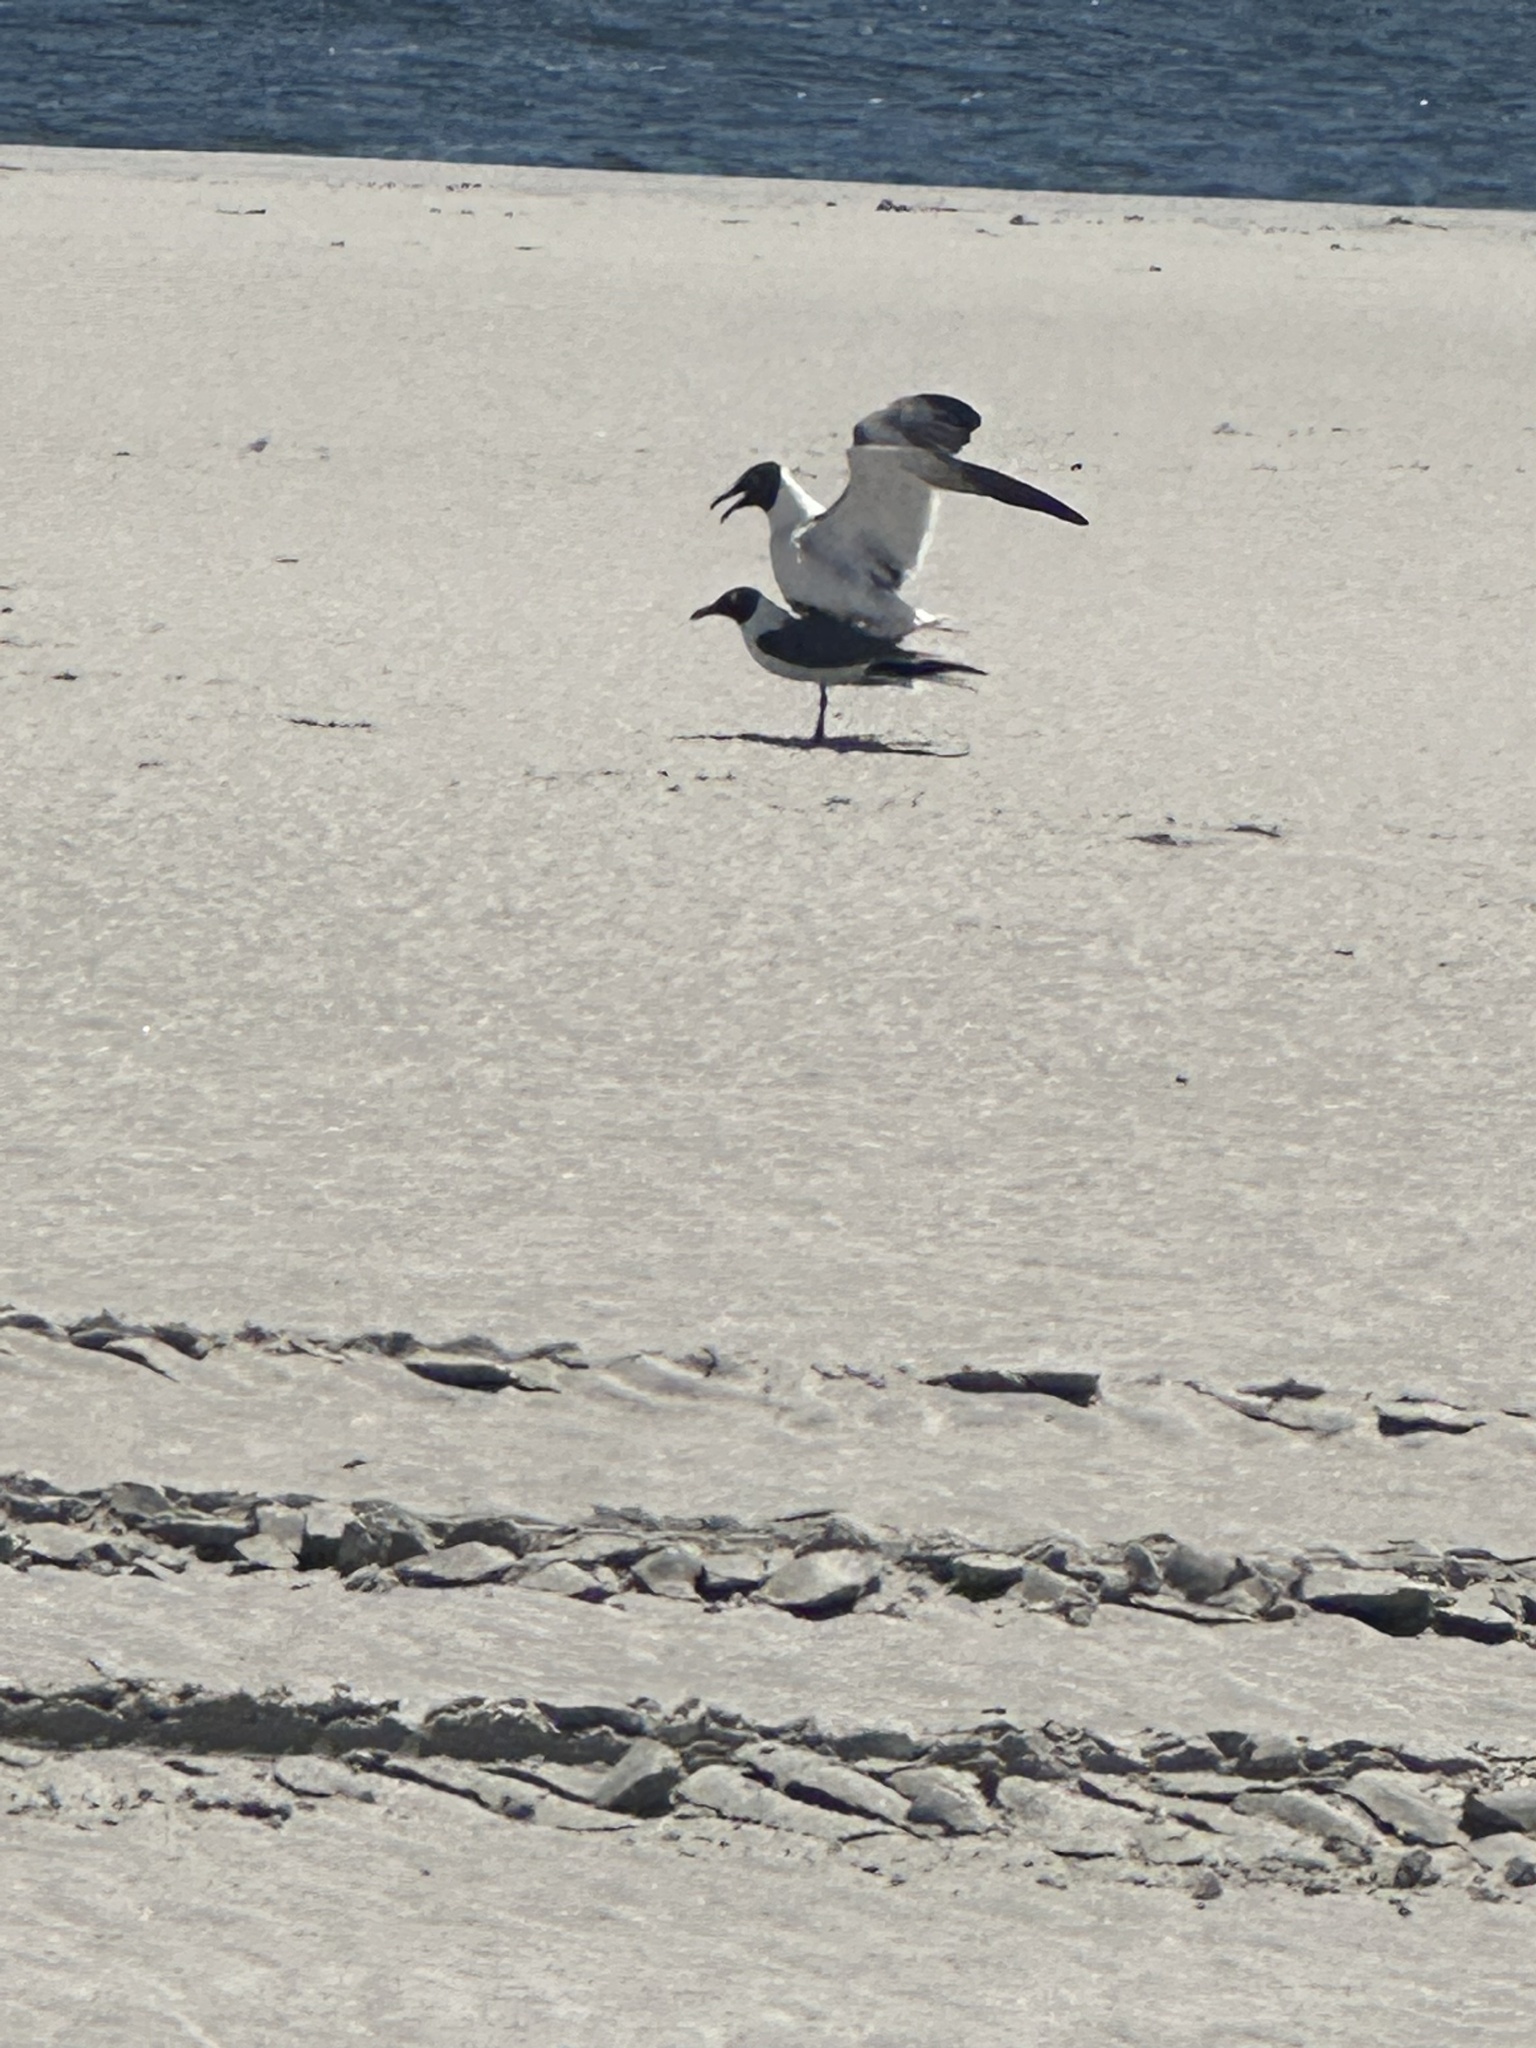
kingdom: Animalia
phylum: Chordata
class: Aves
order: Charadriiformes
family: Laridae
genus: Leucophaeus
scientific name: Leucophaeus atricilla
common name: Laughing gull
